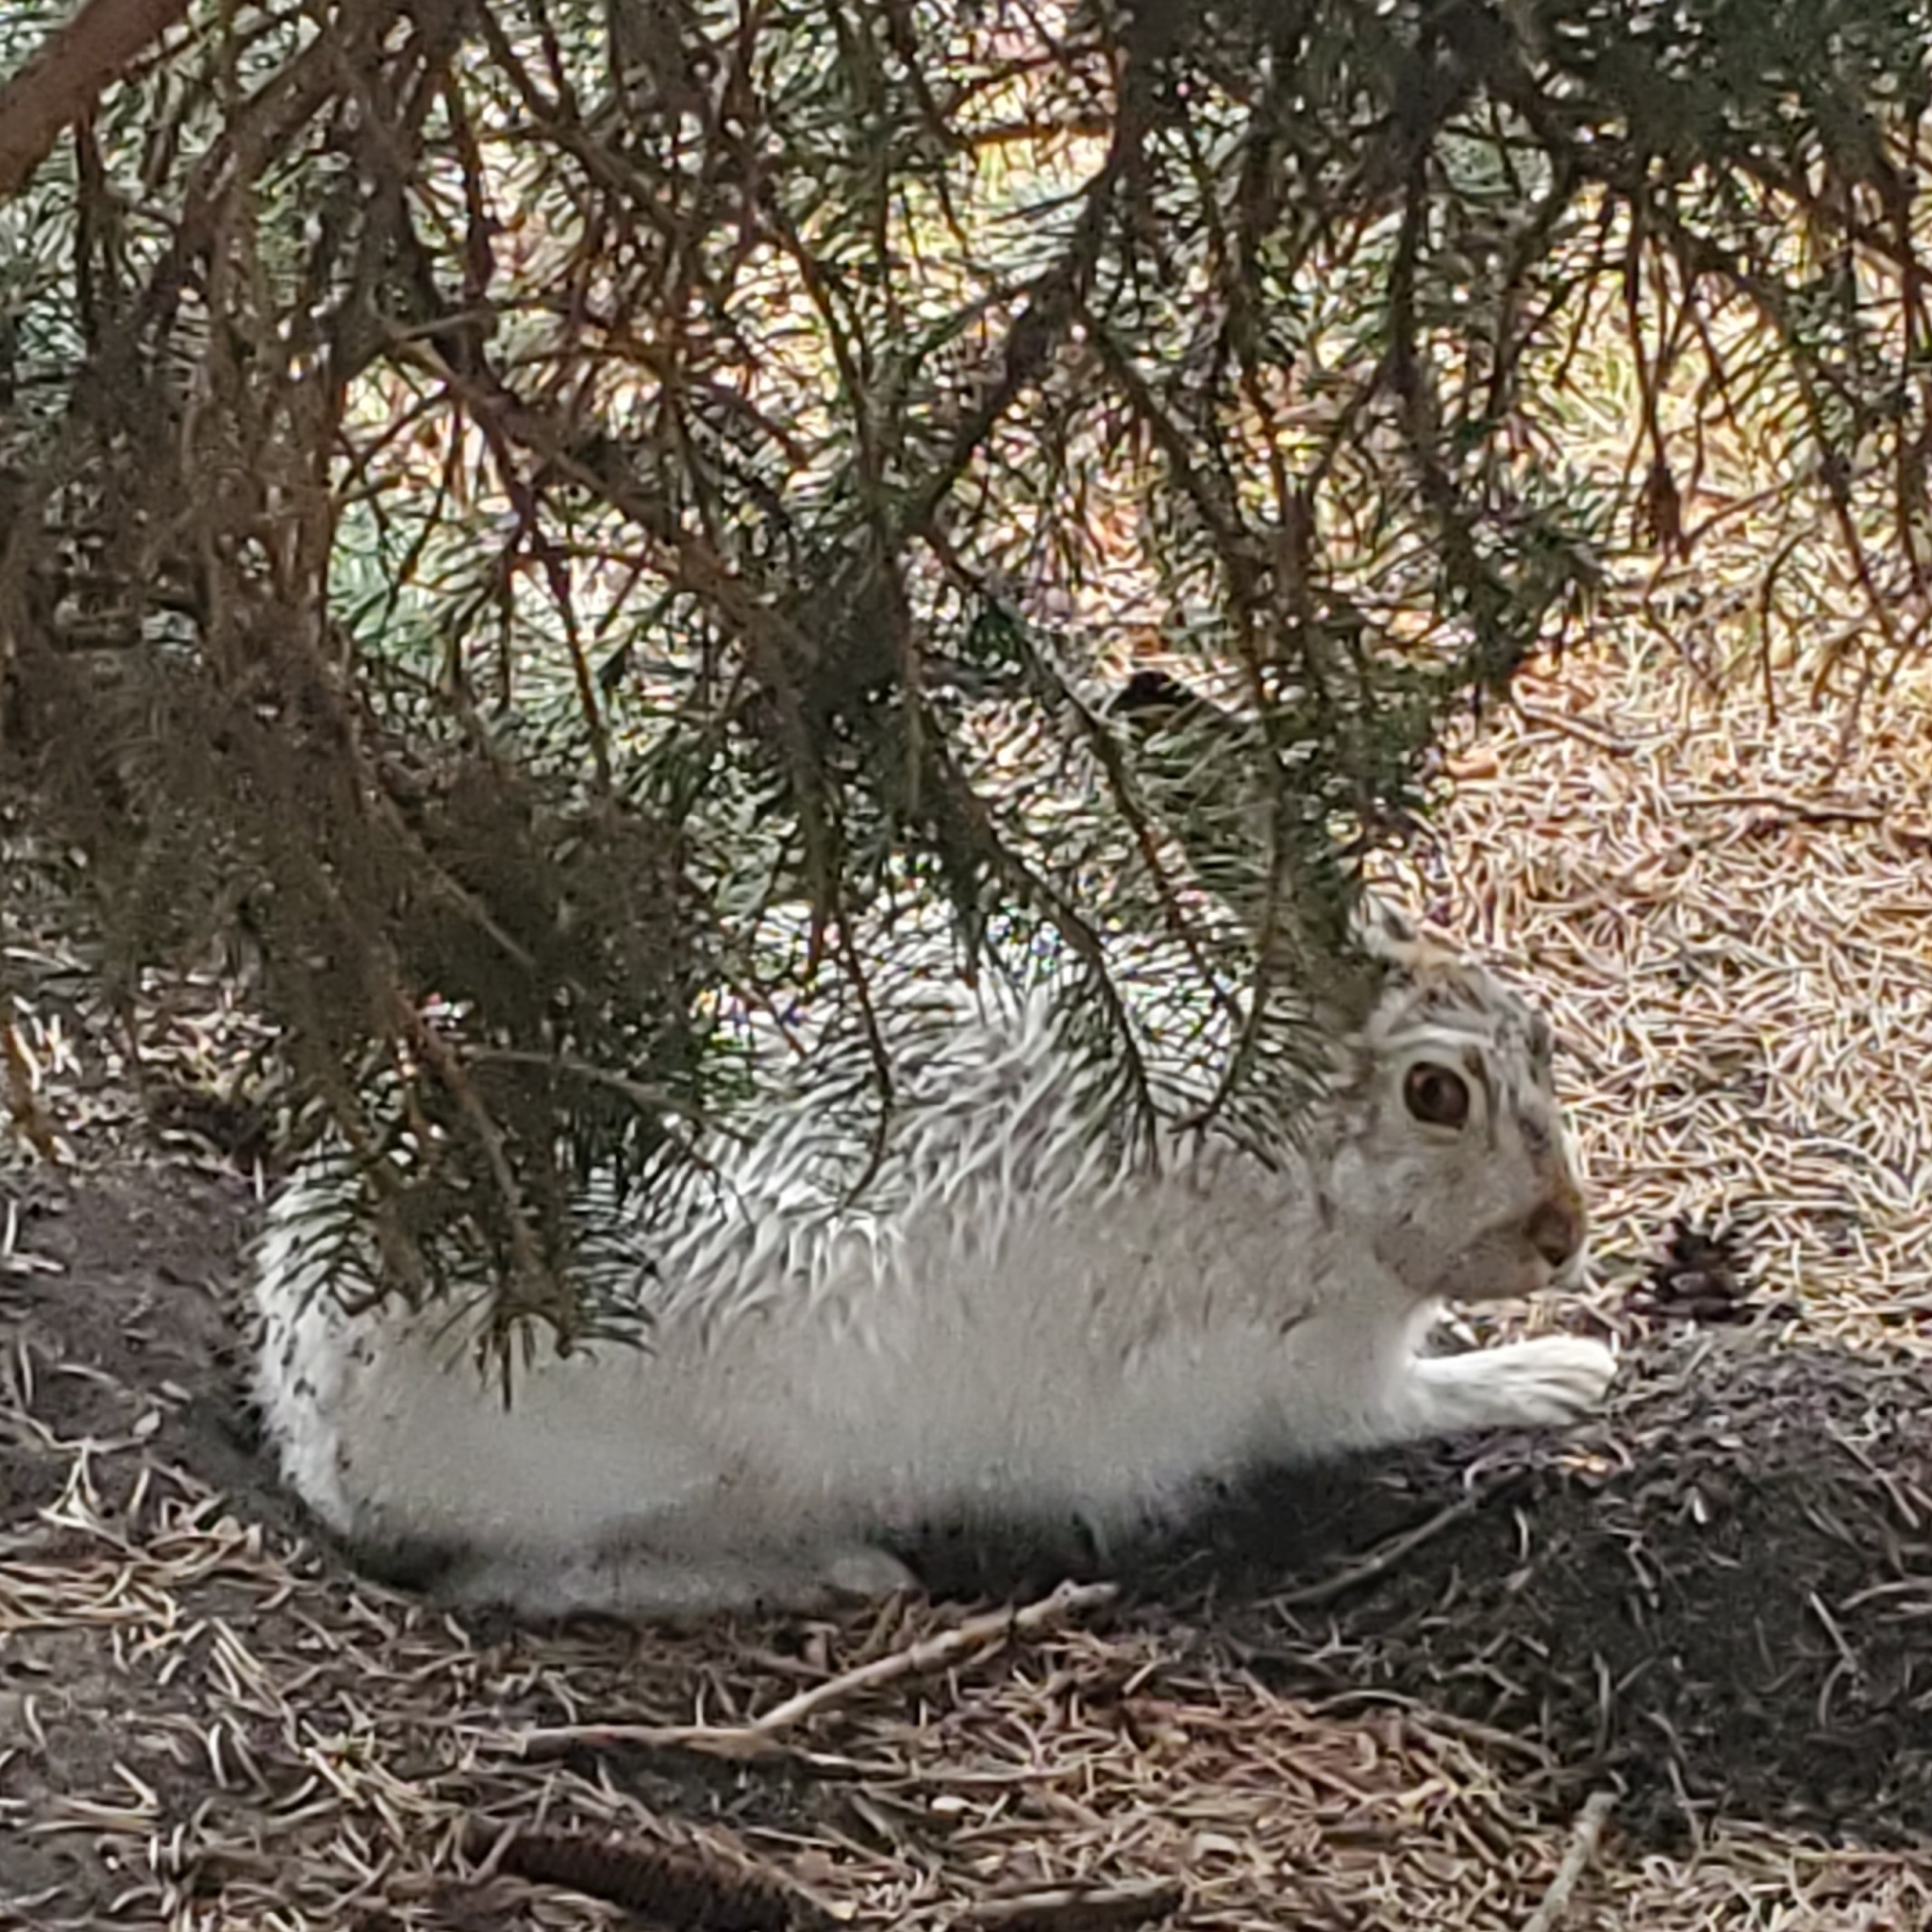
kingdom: Animalia
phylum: Chordata
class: Mammalia
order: Lagomorpha
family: Leporidae
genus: Lepus
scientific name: Lepus townsendii
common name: White-tailed jackrabbit
